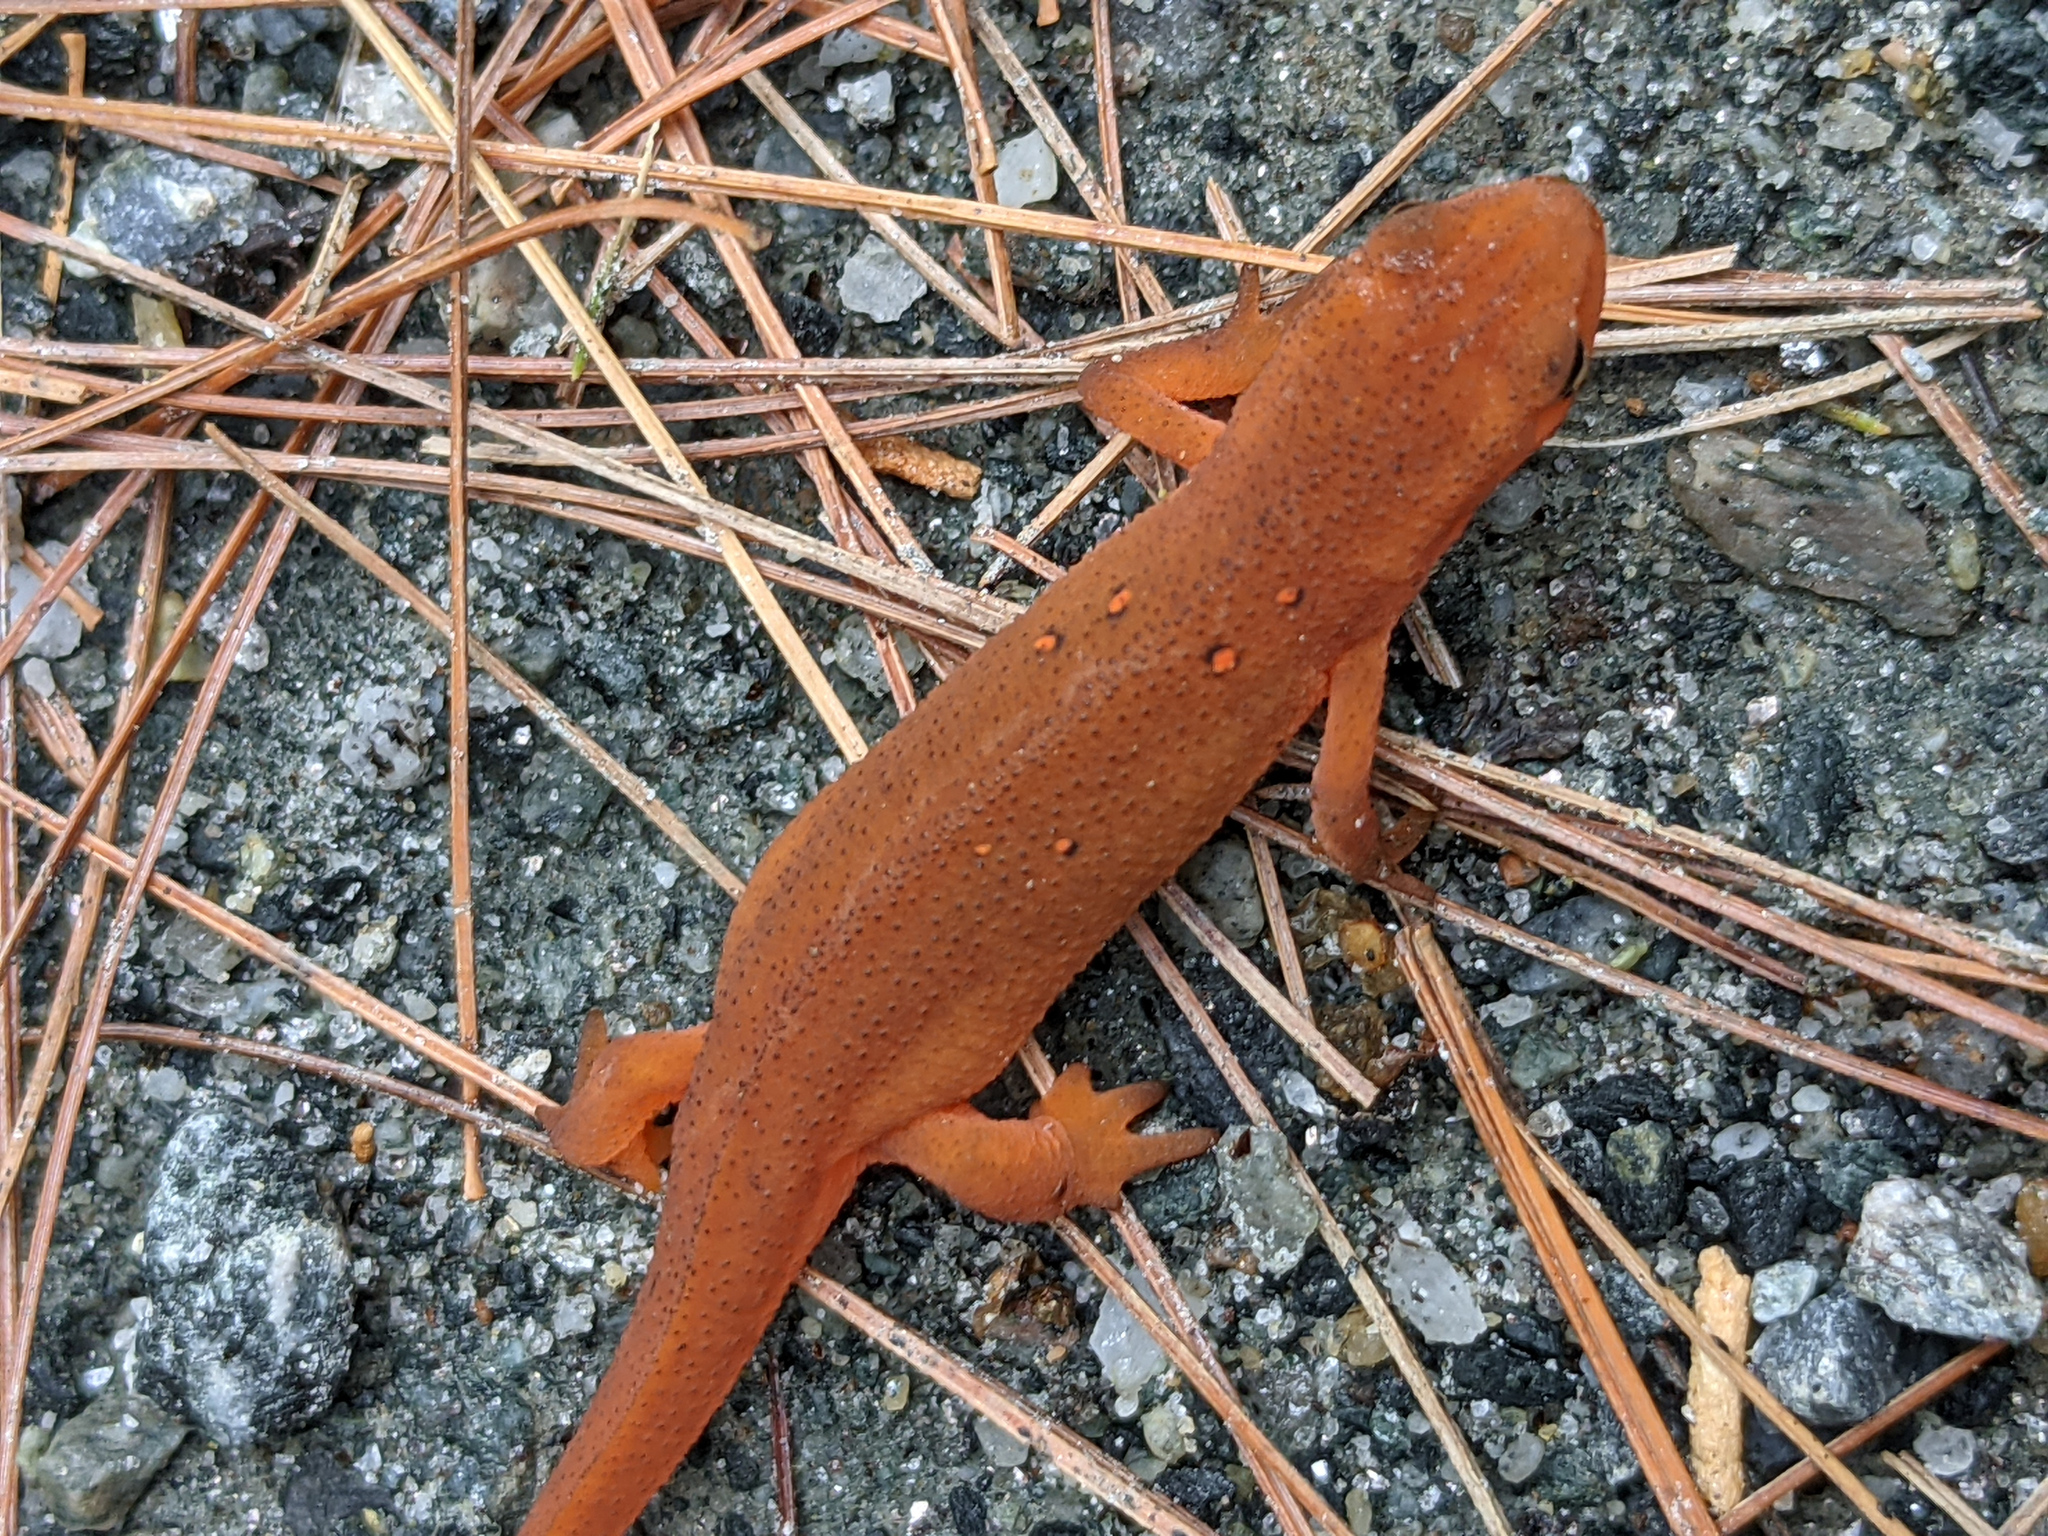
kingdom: Animalia
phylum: Chordata
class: Amphibia
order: Caudata
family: Salamandridae
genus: Notophthalmus
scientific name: Notophthalmus viridescens
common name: Eastern newt
